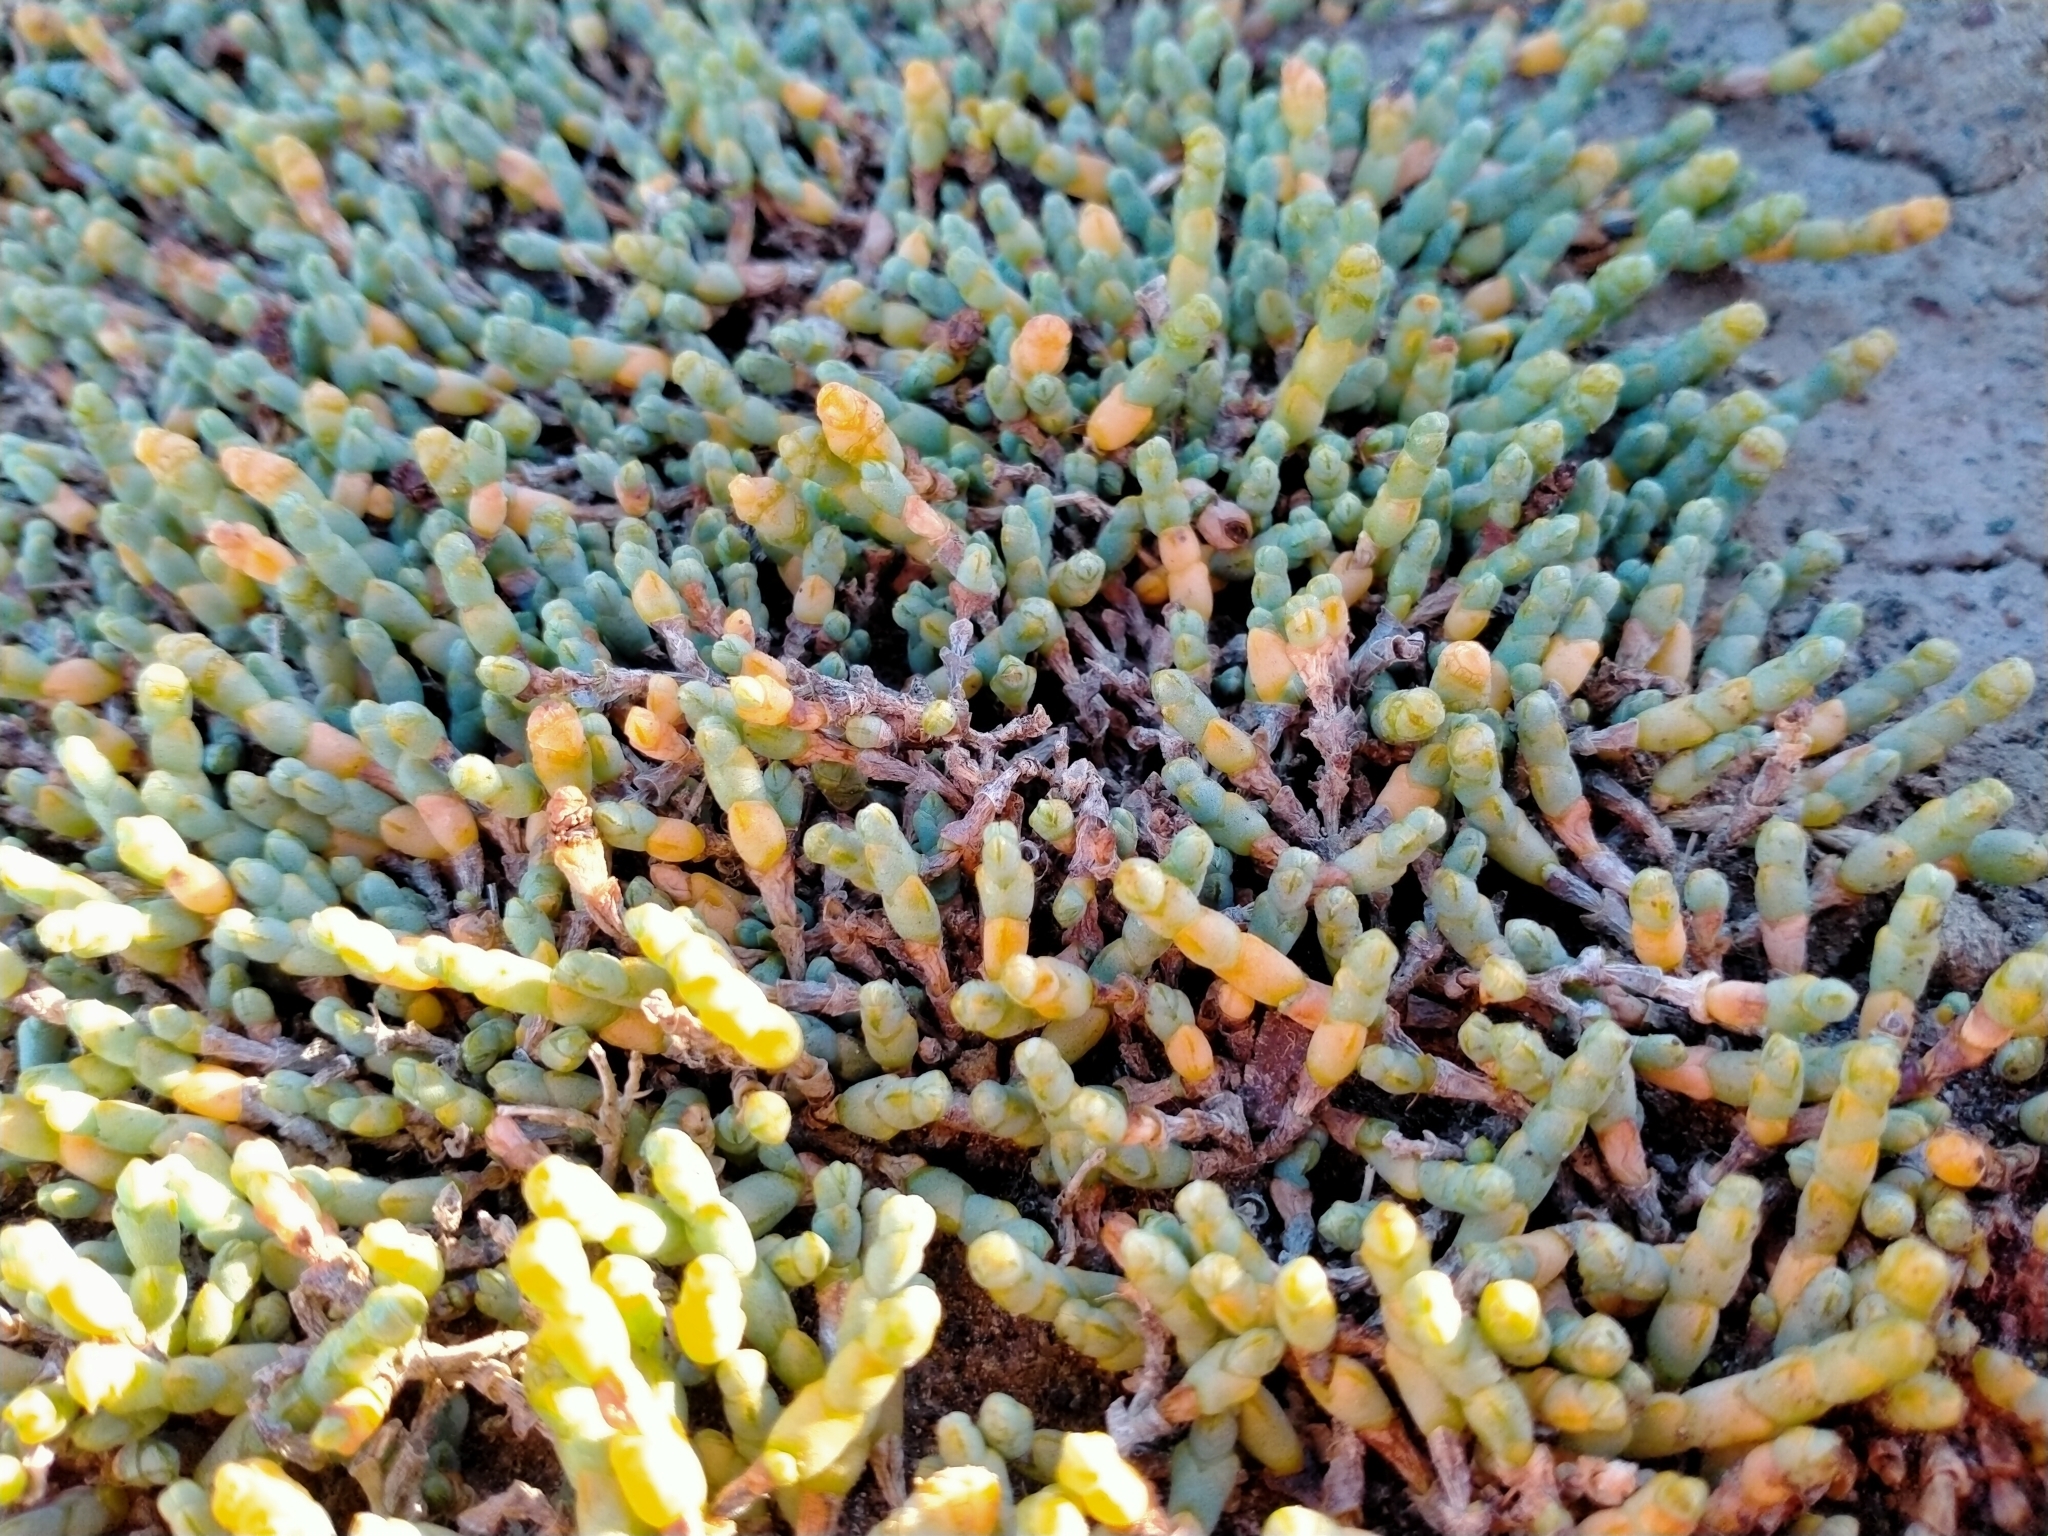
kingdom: Plantae
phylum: Tracheophyta
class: Magnoliopsida
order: Caryophyllales
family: Amaranthaceae
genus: Salicornia
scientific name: Salicornia quinqueflora
